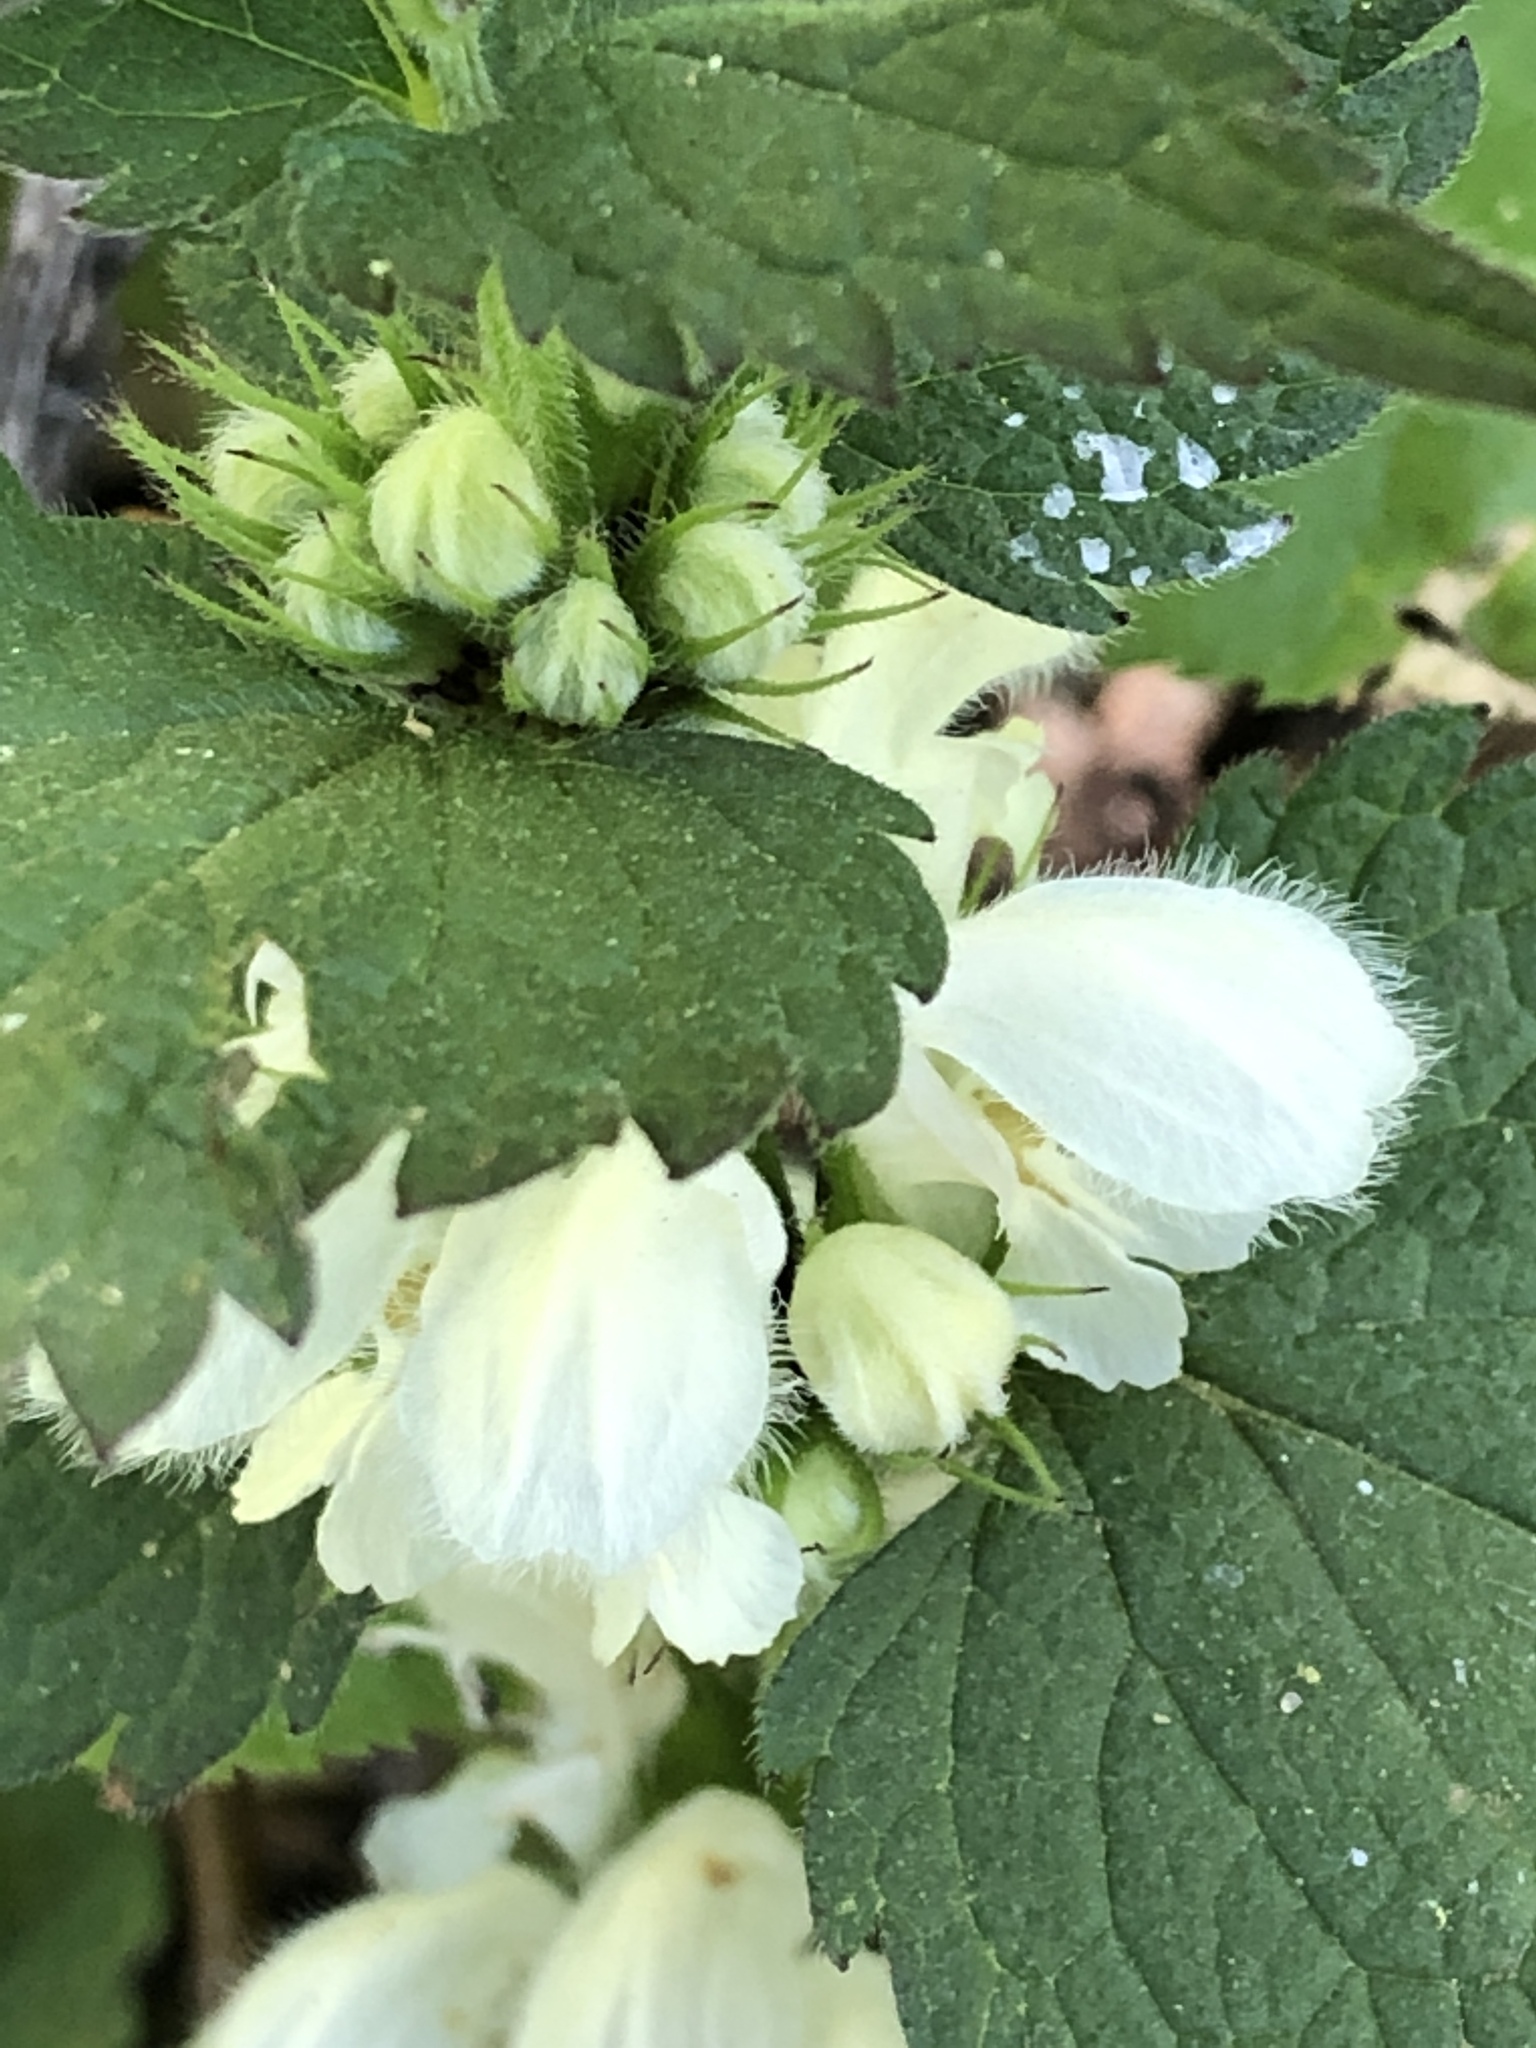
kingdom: Plantae
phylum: Tracheophyta
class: Magnoliopsida
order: Lamiales
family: Lamiaceae
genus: Lamium
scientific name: Lamium album
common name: White dead-nettle
